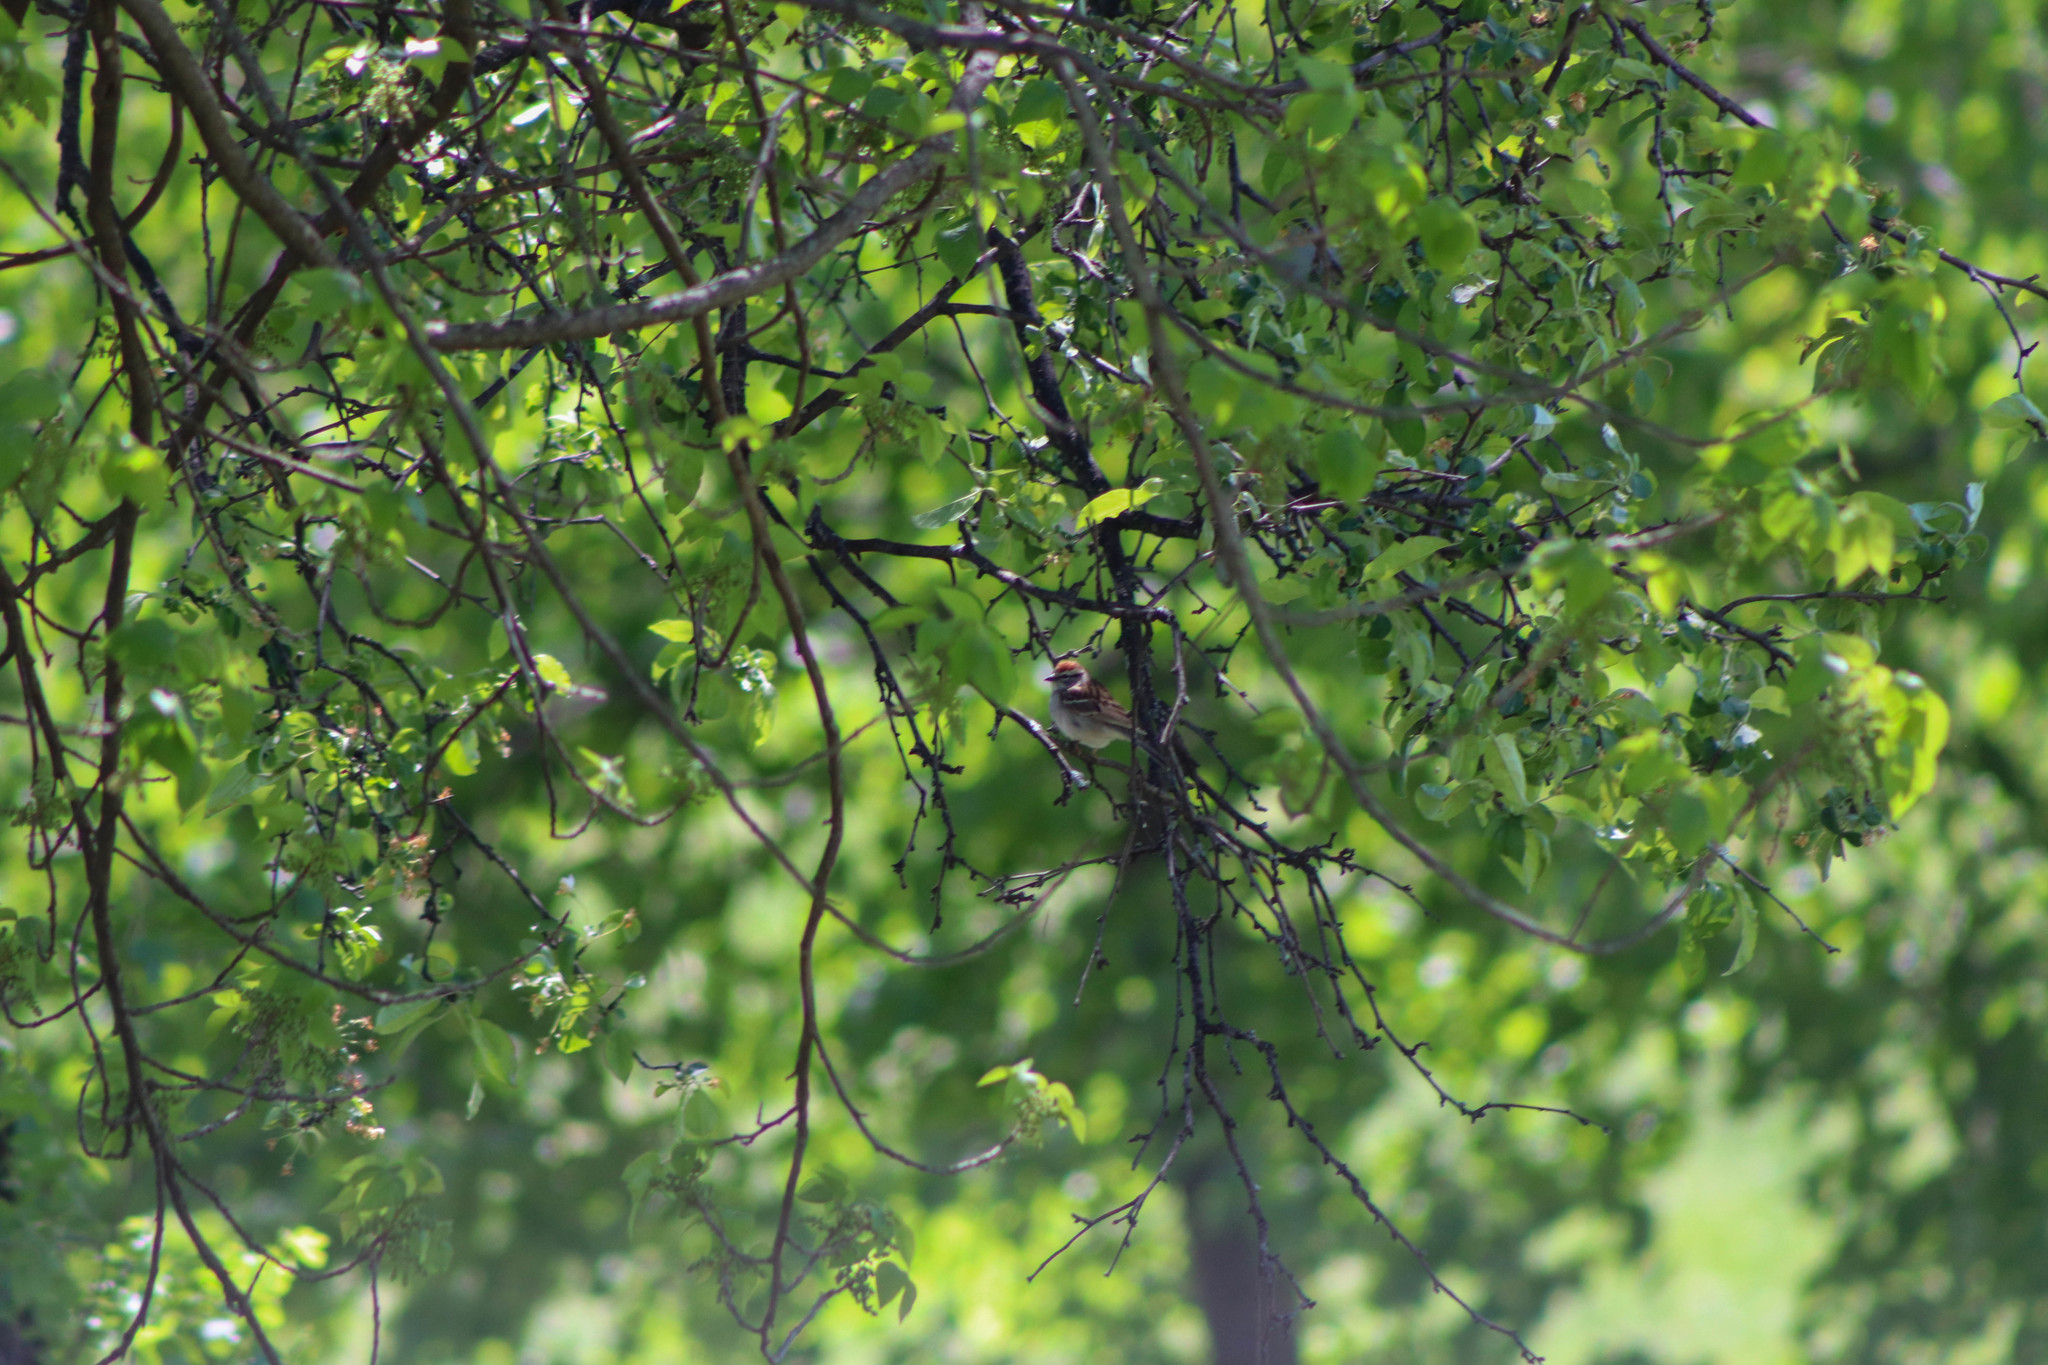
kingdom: Animalia
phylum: Chordata
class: Aves
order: Passeriformes
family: Passerellidae
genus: Spizella
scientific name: Spizella passerina
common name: Chipping sparrow
